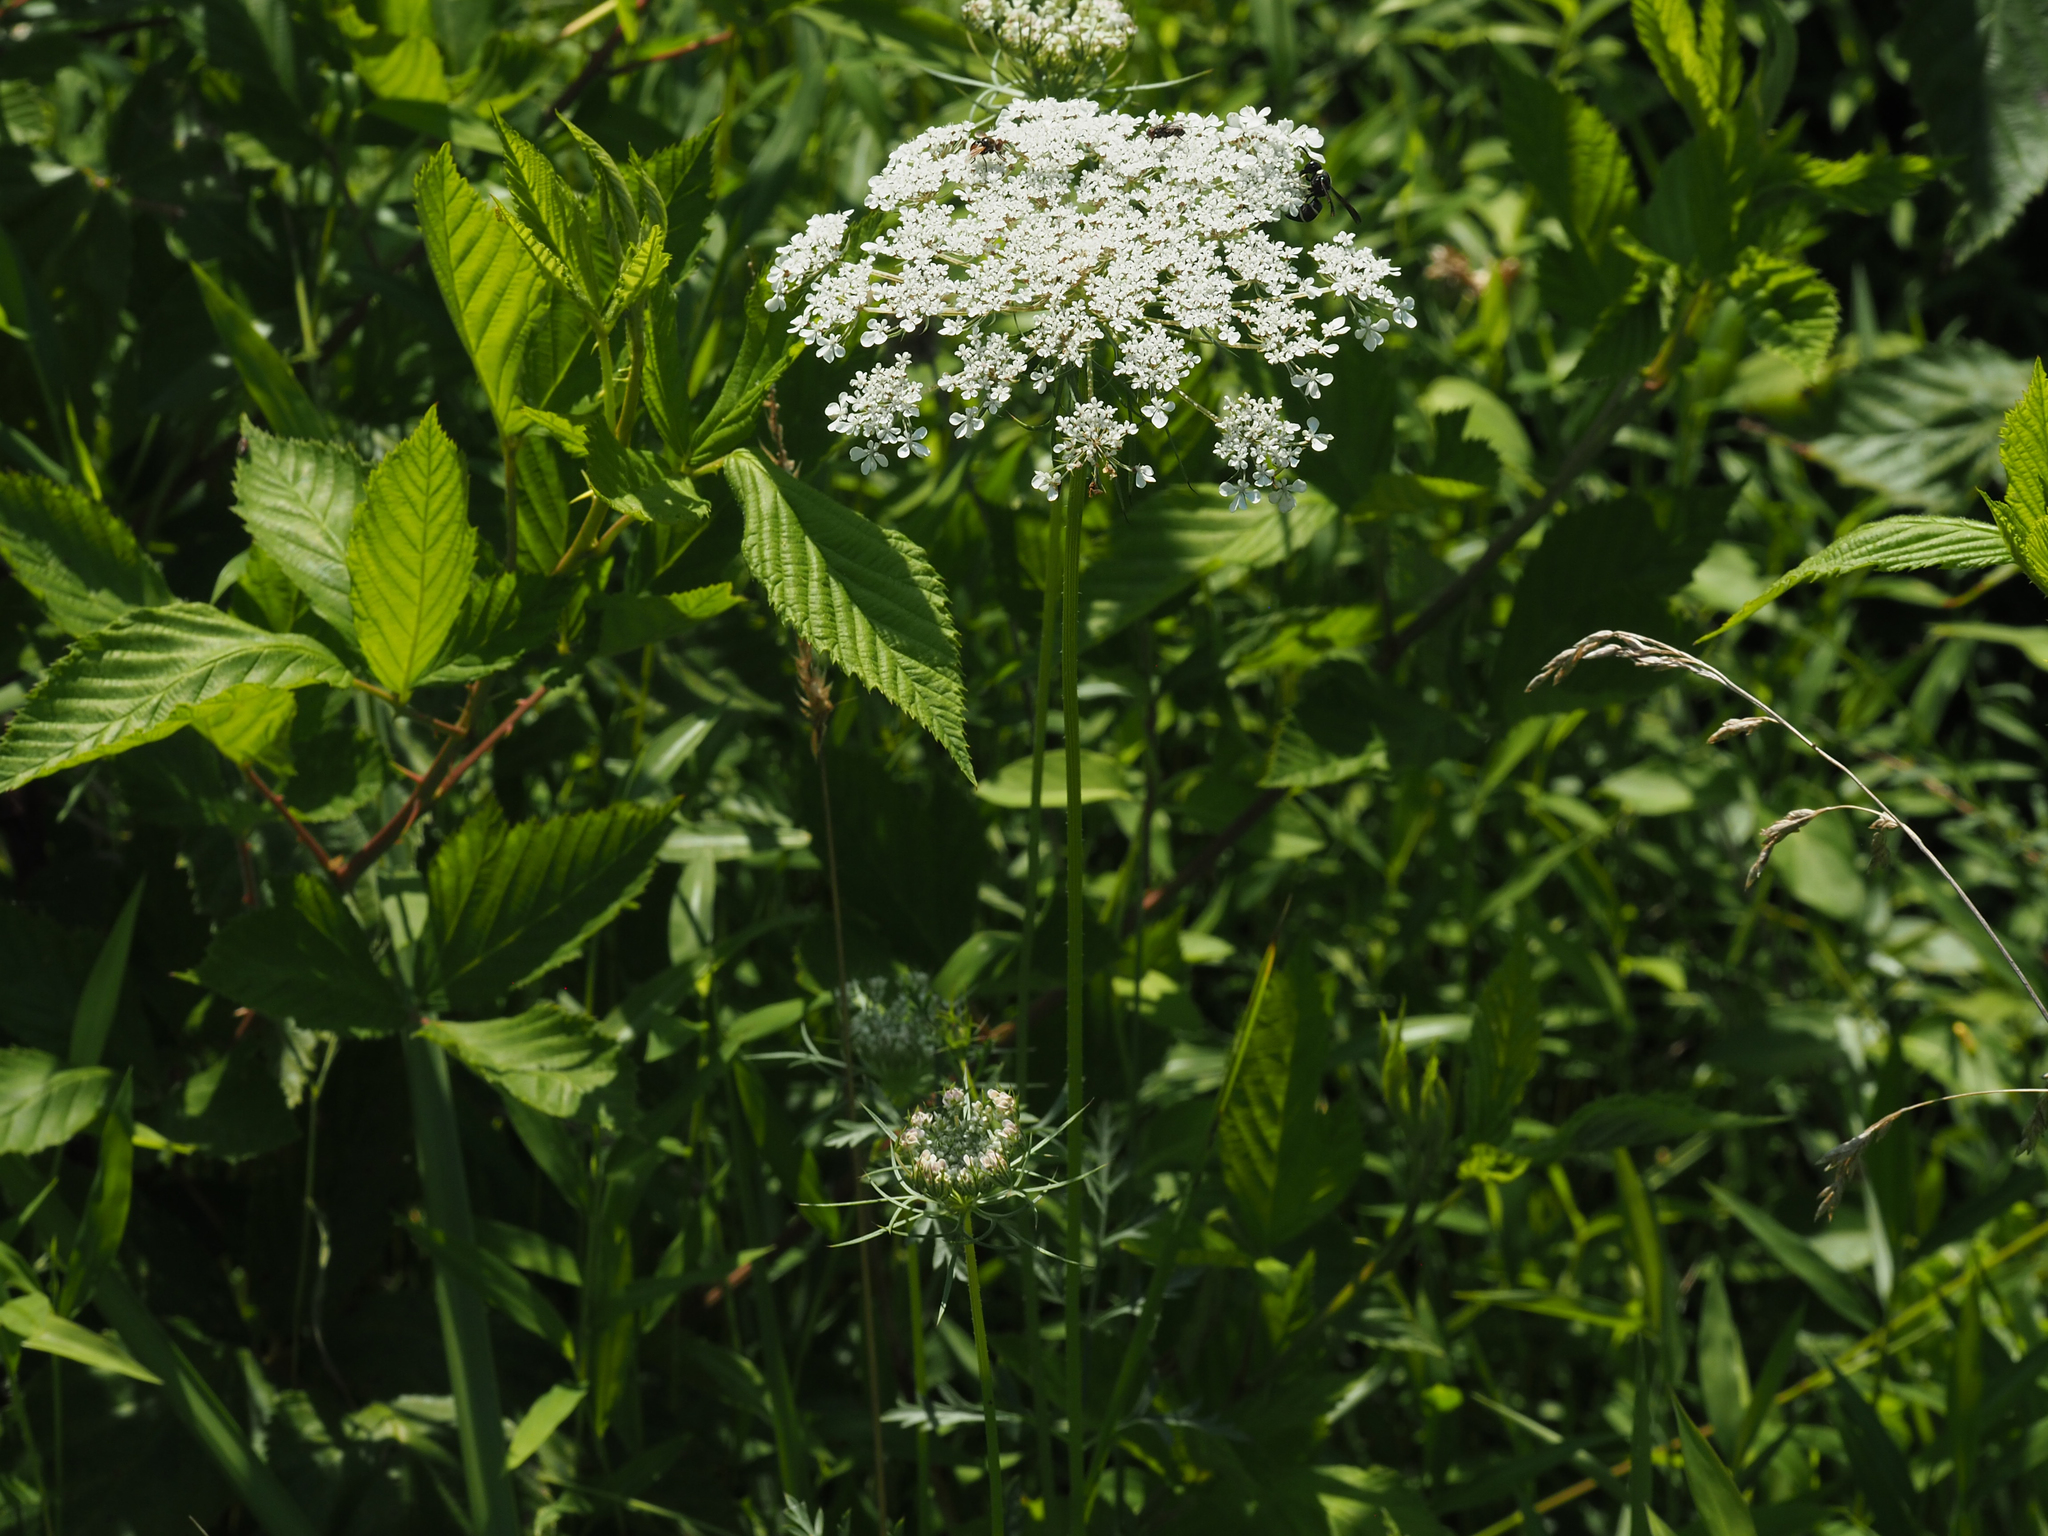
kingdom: Plantae
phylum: Tracheophyta
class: Magnoliopsida
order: Apiales
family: Apiaceae
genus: Daucus
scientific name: Daucus carota
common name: Wild carrot
